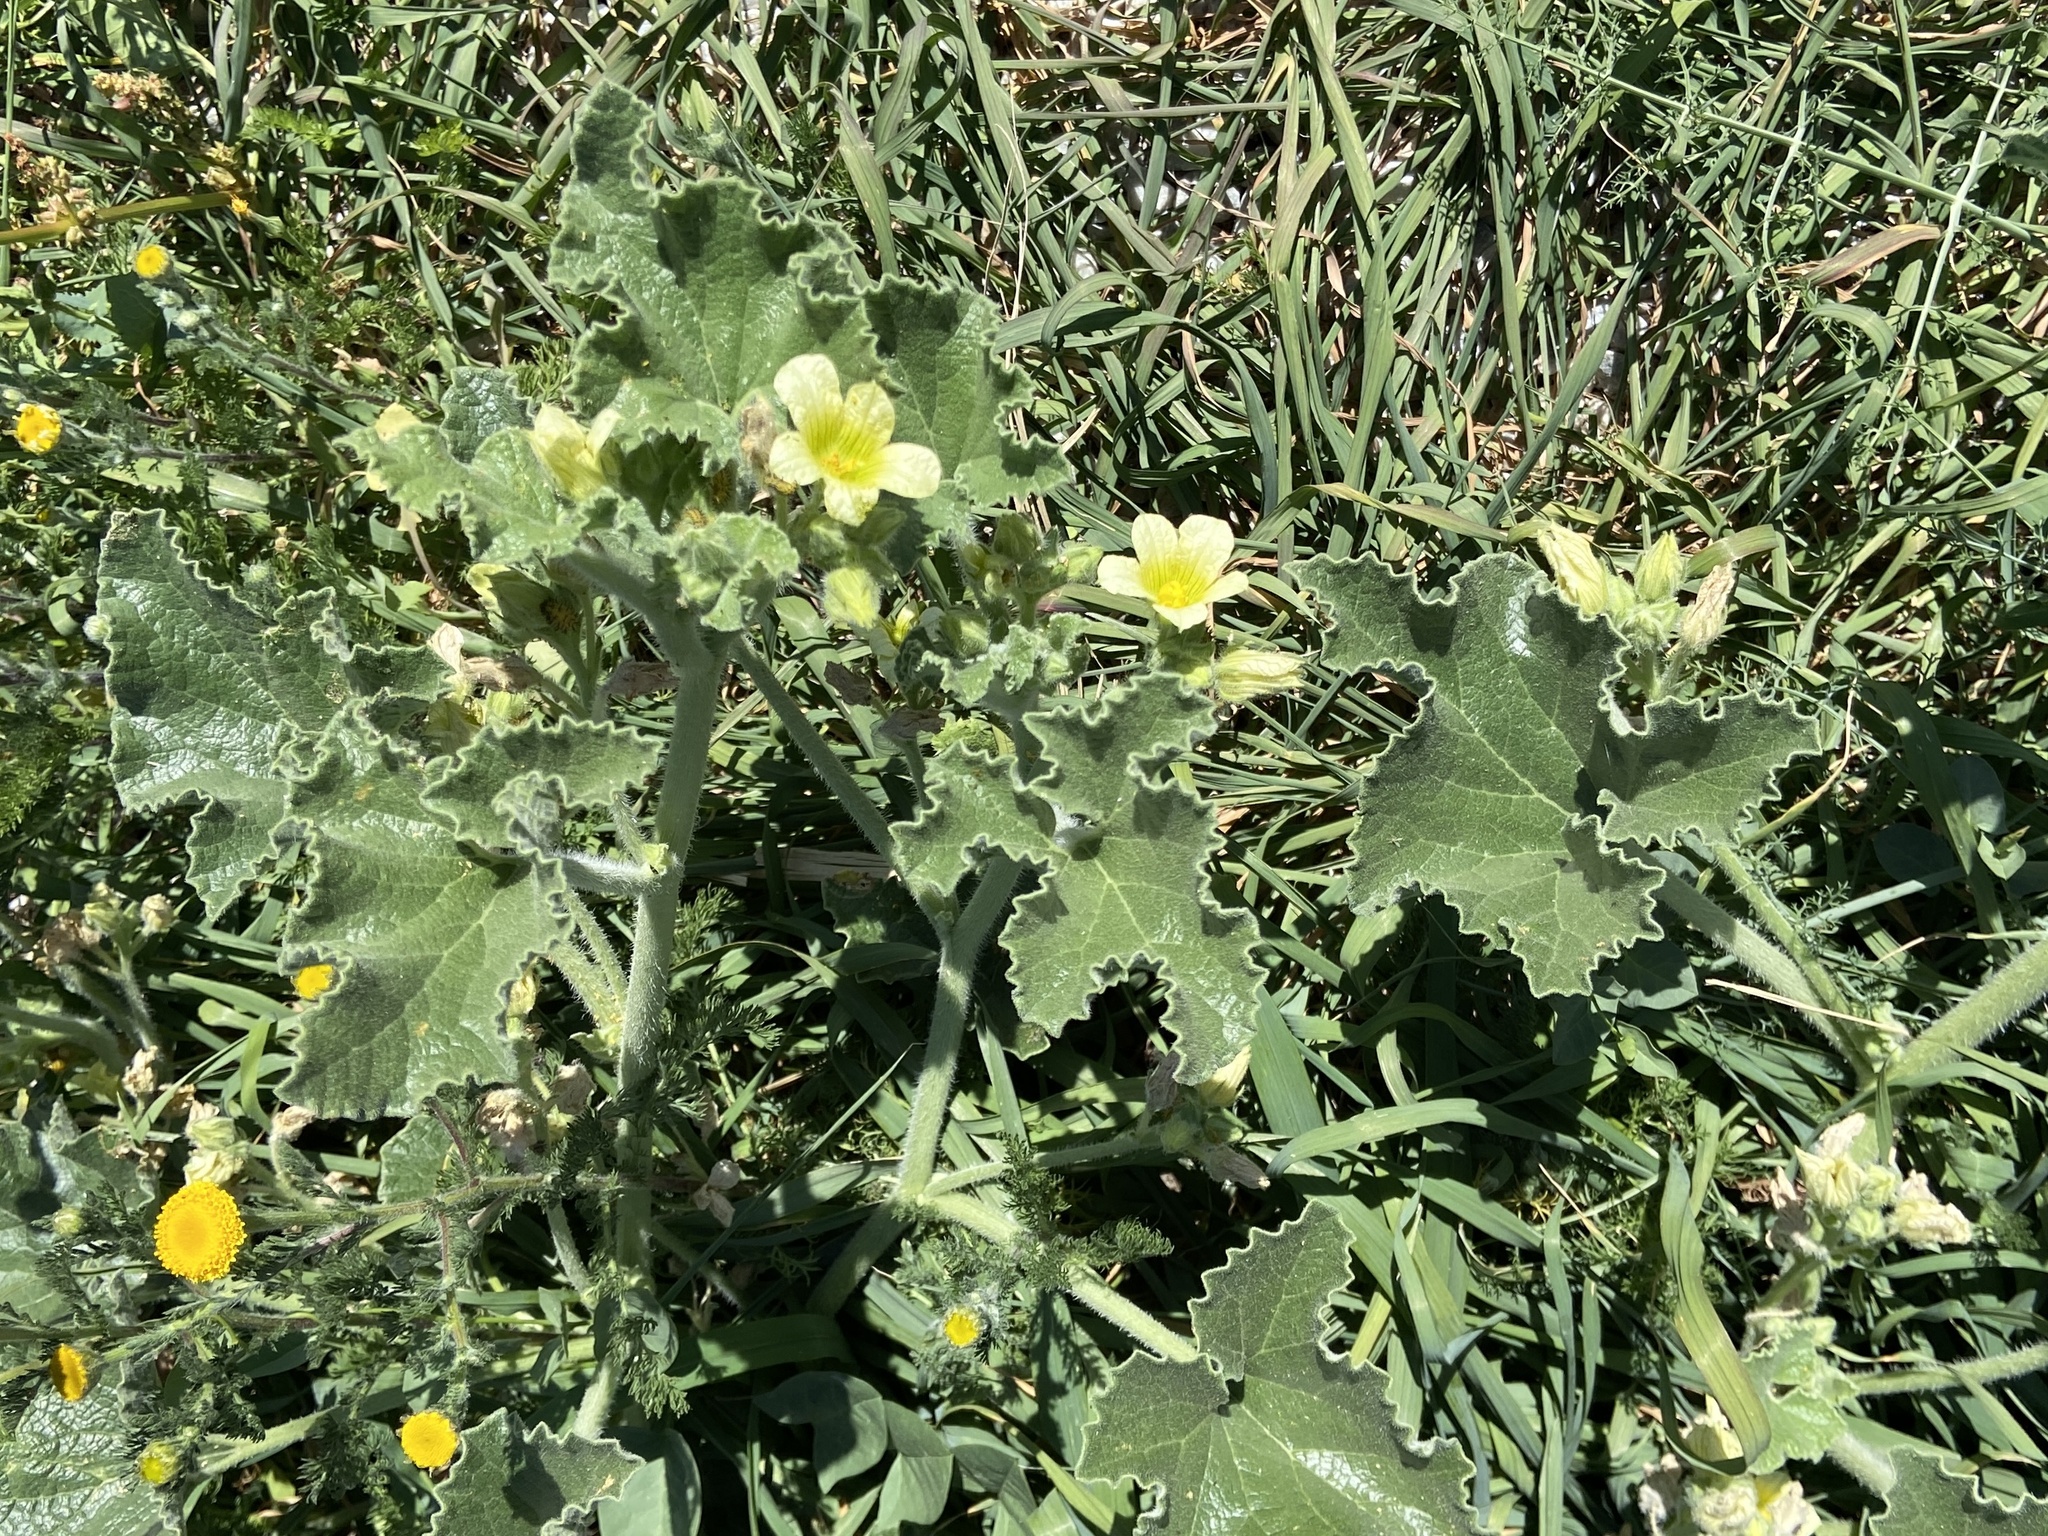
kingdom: Plantae
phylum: Tracheophyta
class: Magnoliopsida
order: Cucurbitales
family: Cucurbitaceae
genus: Ecballium
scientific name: Ecballium elaterium
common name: Squirting cucumber
